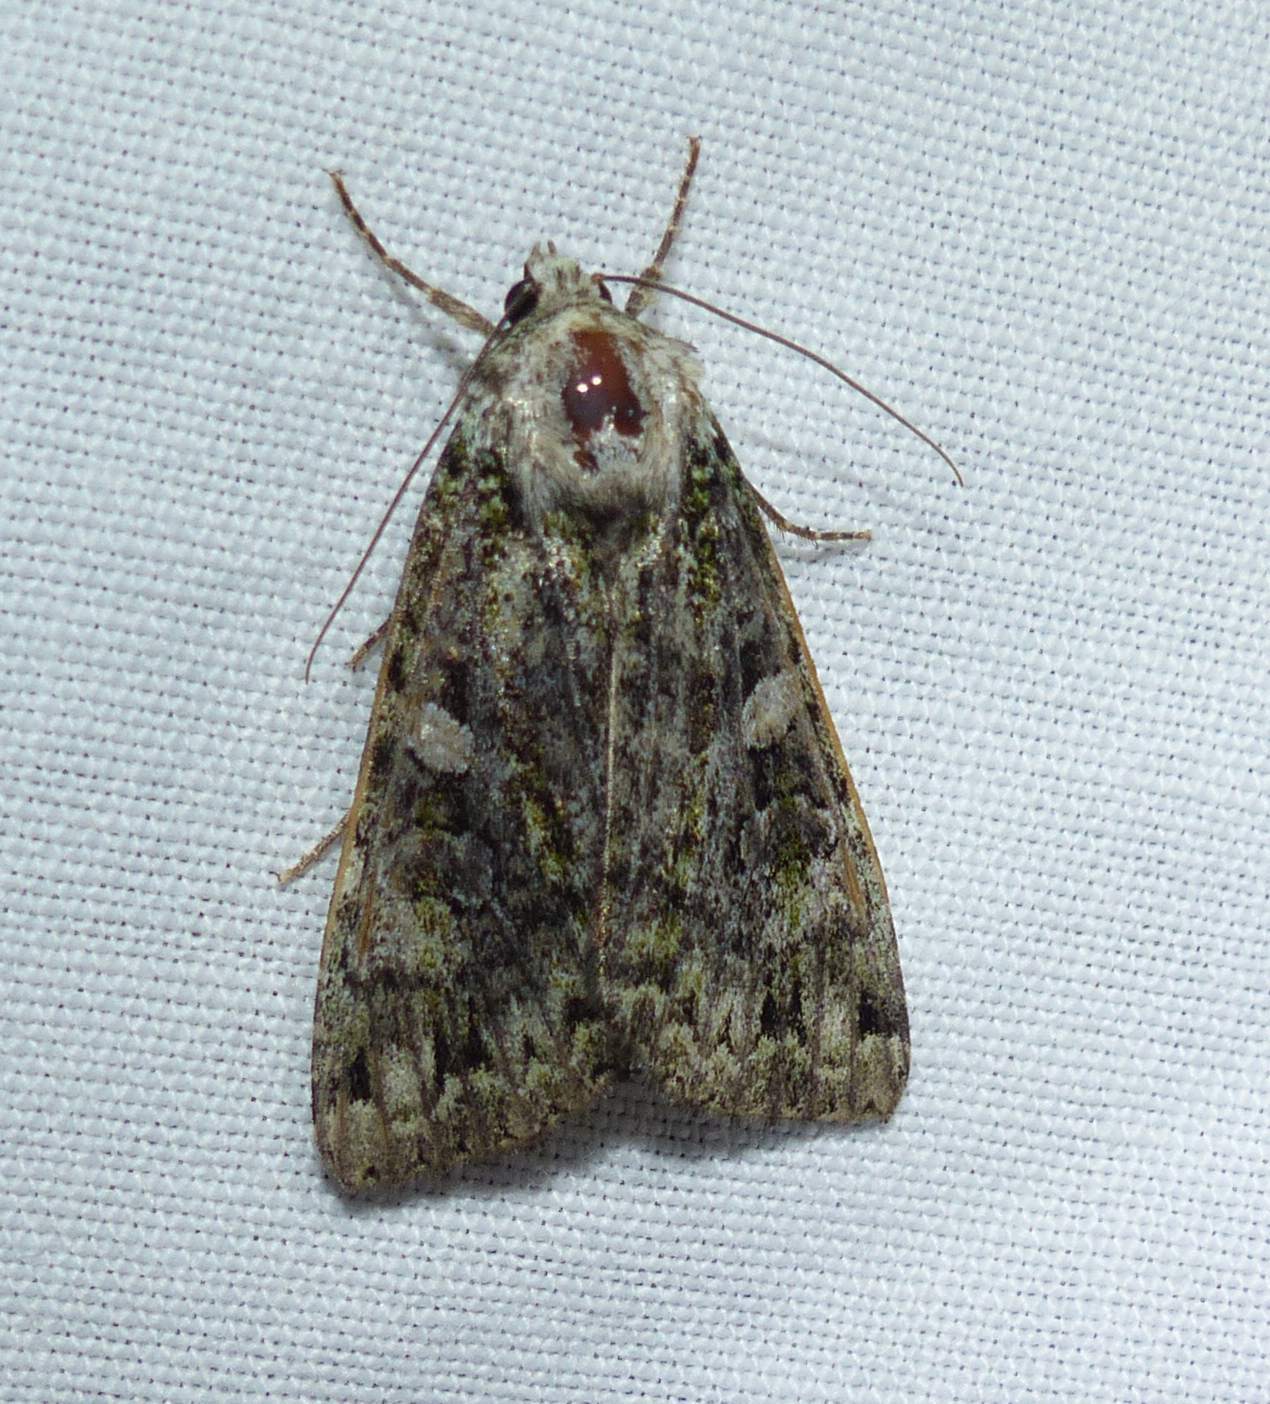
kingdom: Animalia
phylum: Arthropoda
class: Insecta
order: Lepidoptera
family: Noctuidae
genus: Anaplectoides
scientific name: Anaplectoides prasina
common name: Green arches
